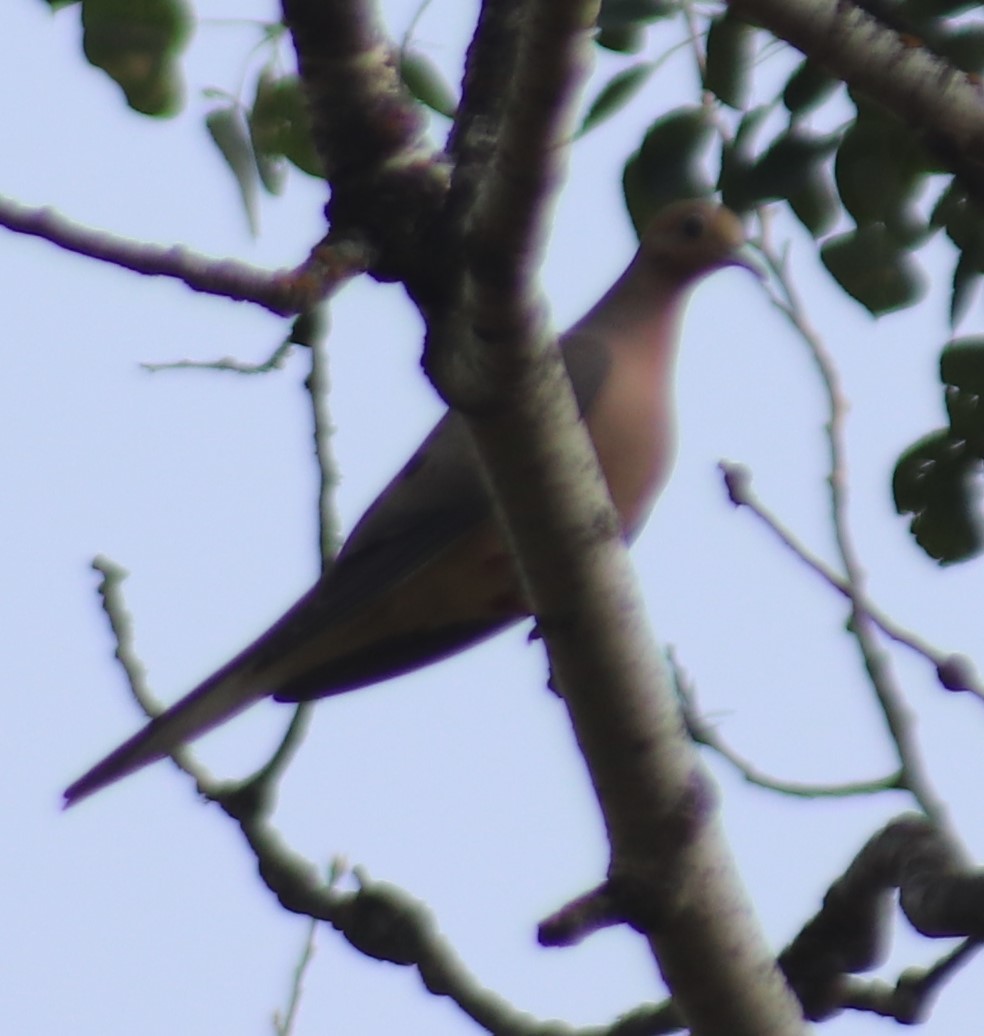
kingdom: Animalia
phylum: Chordata
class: Aves
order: Columbiformes
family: Columbidae
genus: Zenaida
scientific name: Zenaida macroura
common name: Mourning dove
